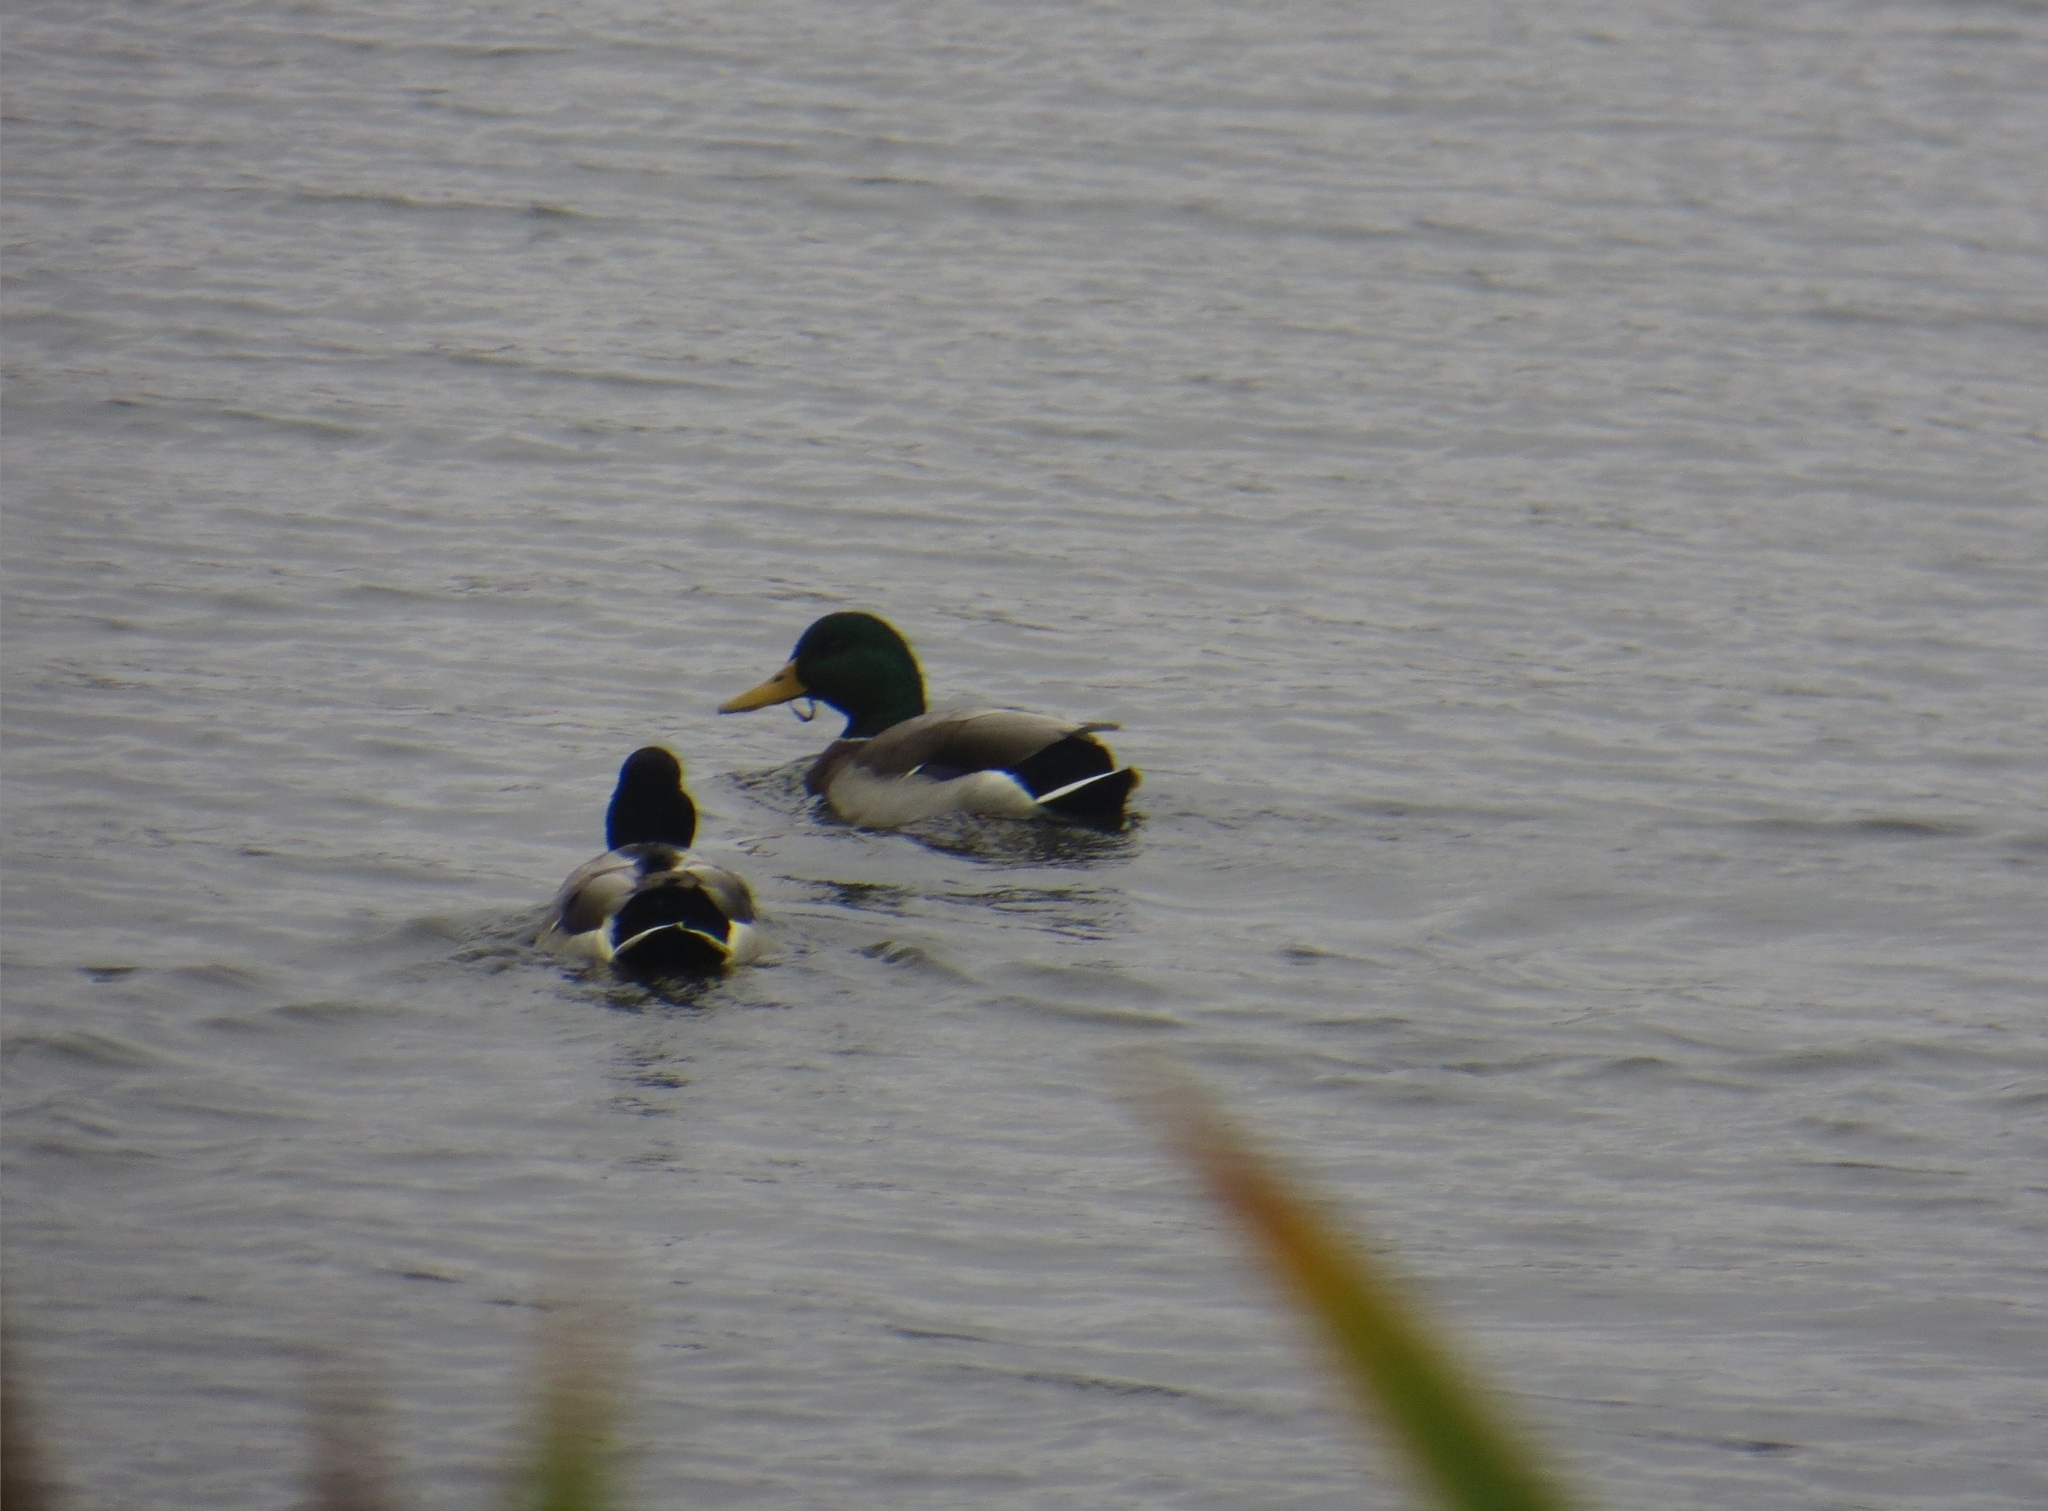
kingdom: Animalia
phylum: Chordata
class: Aves
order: Anseriformes
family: Anatidae
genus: Anas
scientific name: Anas platyrhynchos
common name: Mallard
